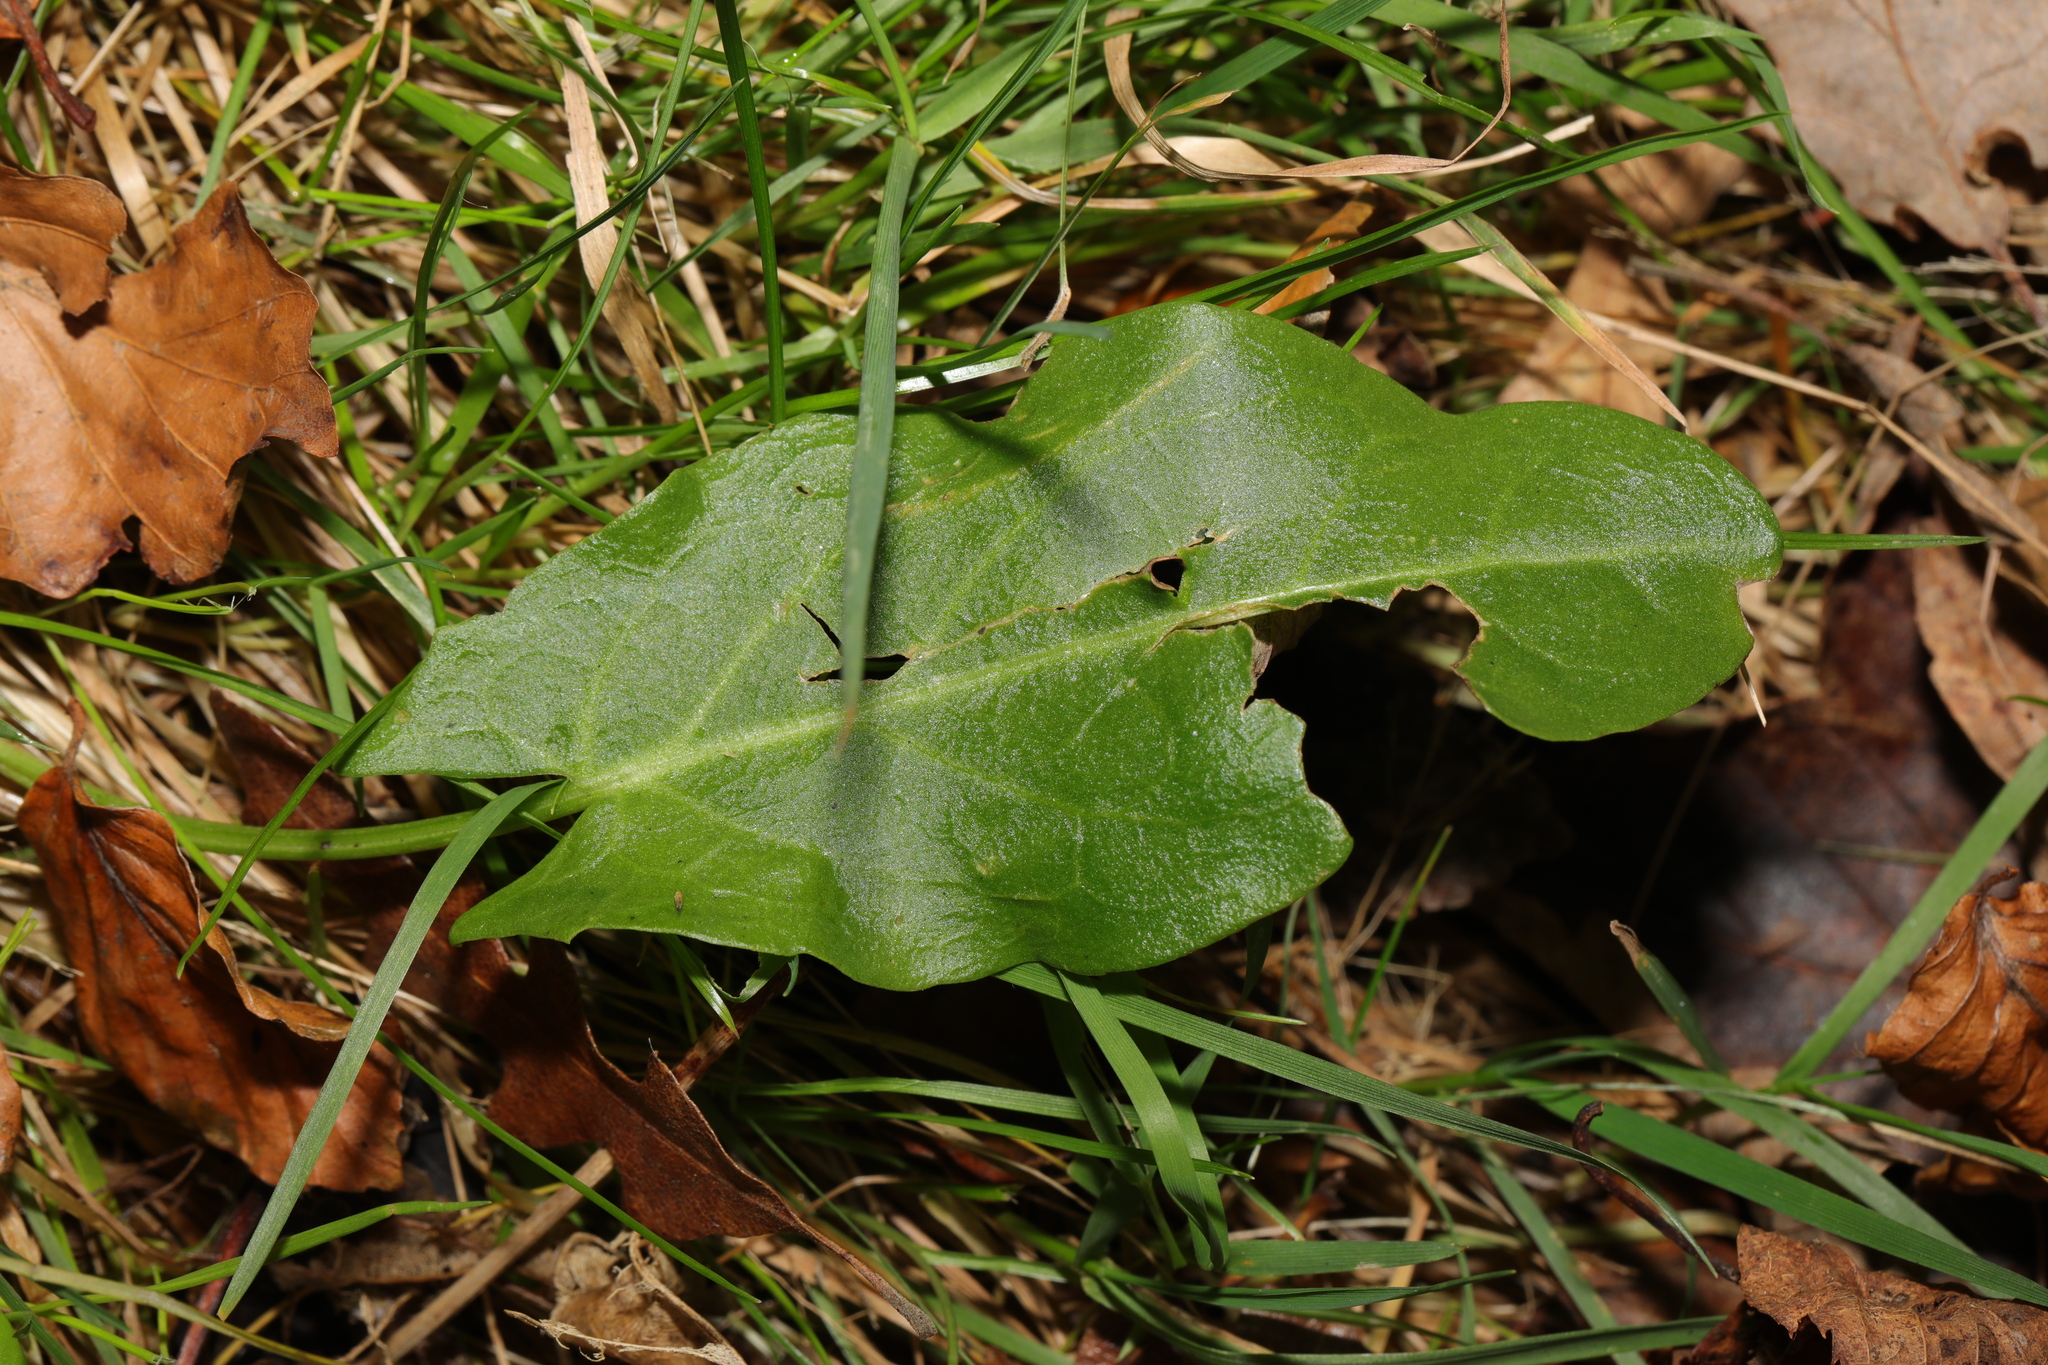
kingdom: Plantae
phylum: Tracheophyta
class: Magnoliopsida
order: Caryophyllales
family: Polygonaceae
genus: Rumex
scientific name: Rumex acetosa
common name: Garden sorrel
